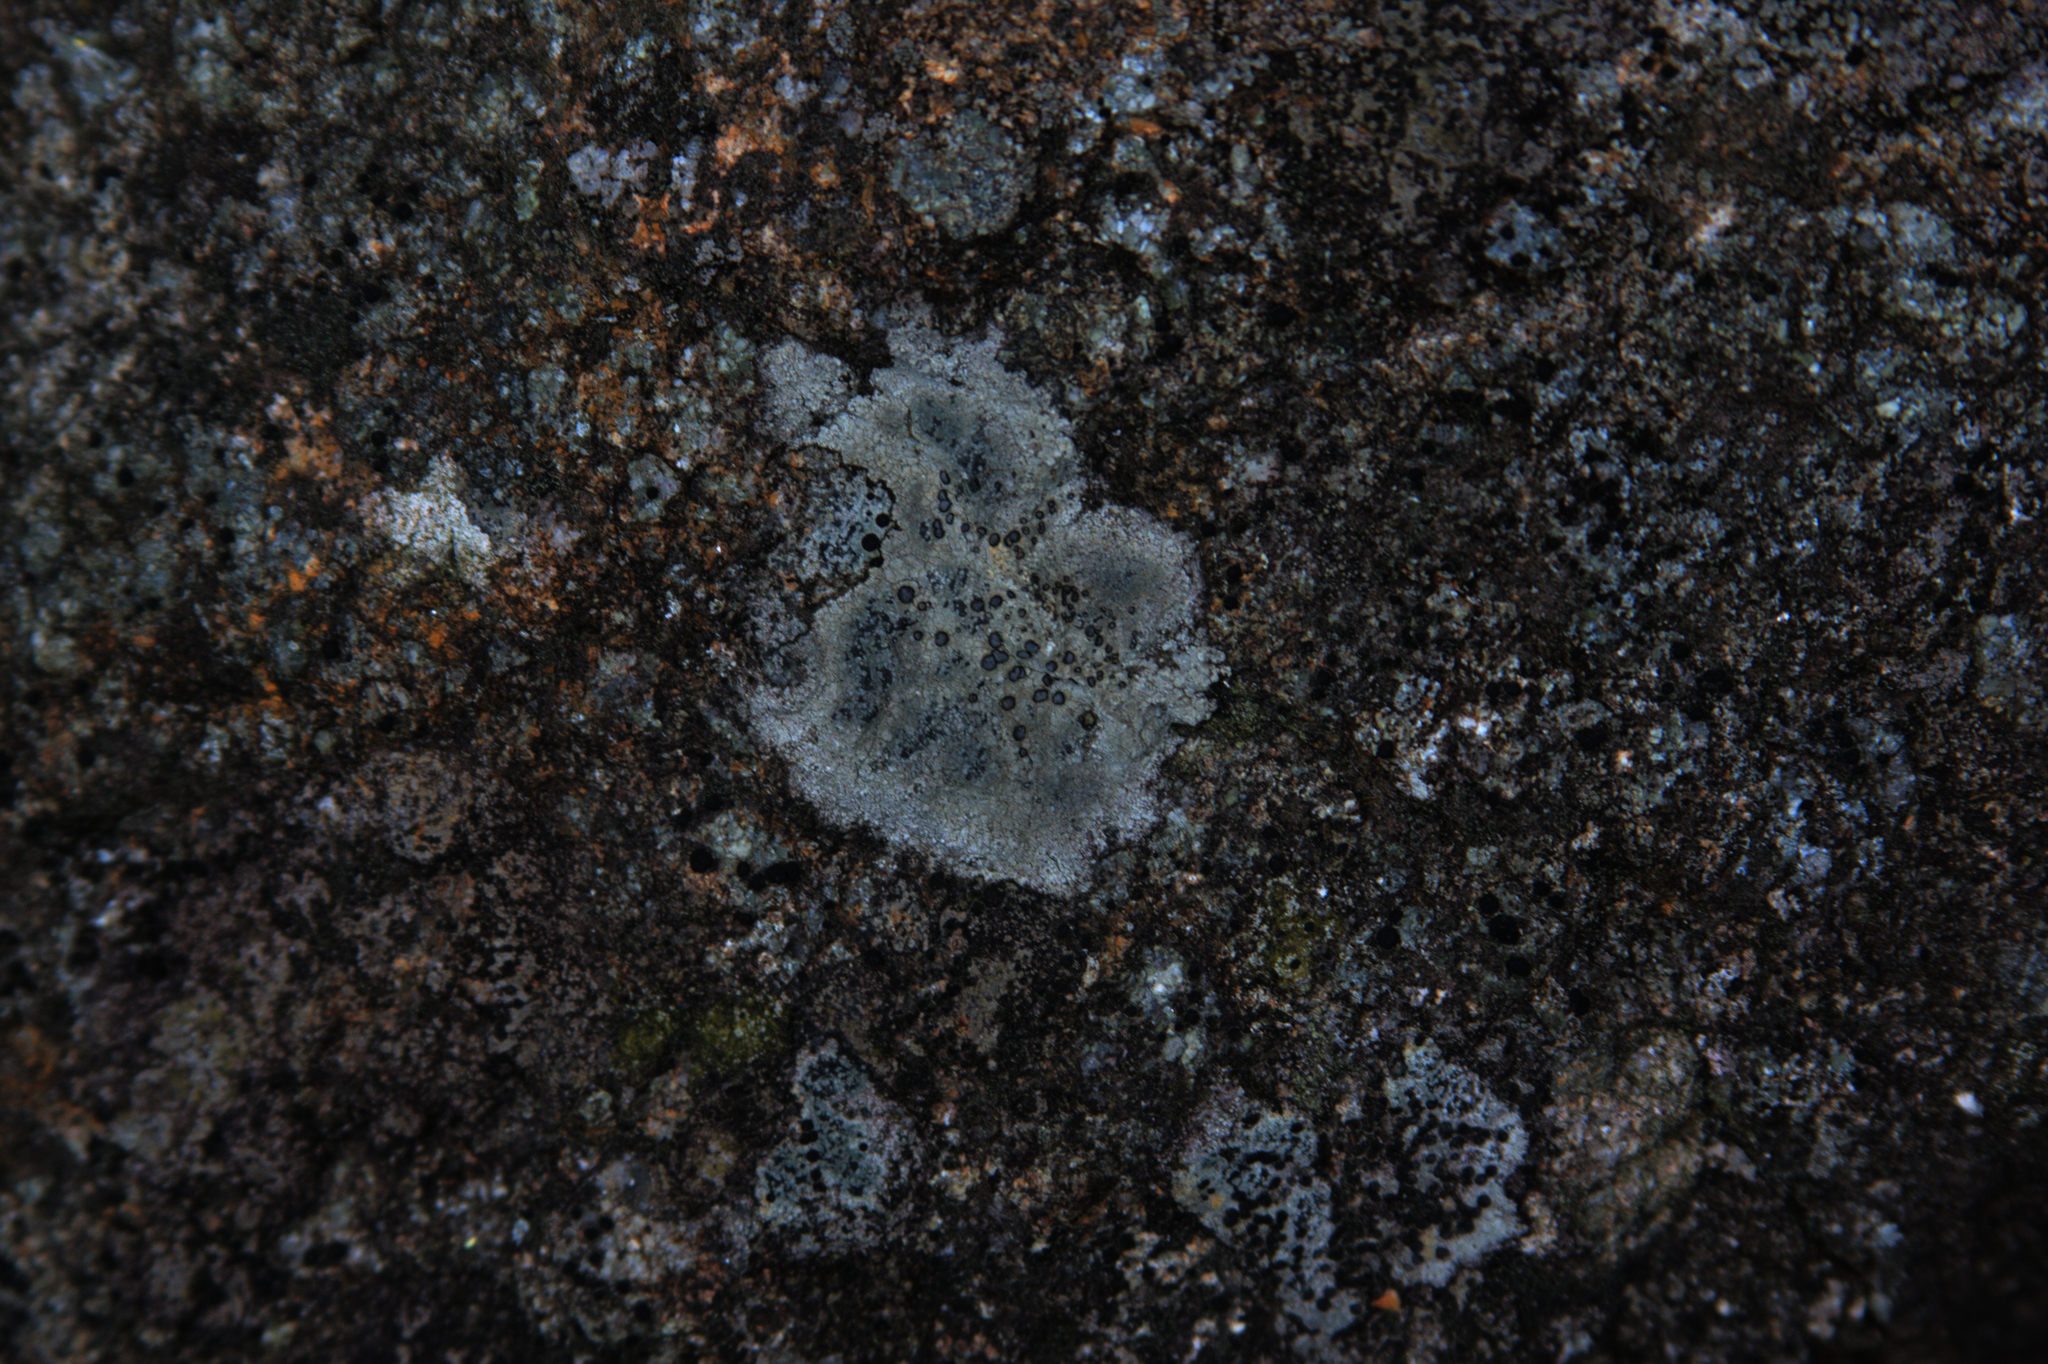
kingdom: Fungi
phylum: Ascomycota
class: Lecanoromycetes
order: Lecideales
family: Lecideaceae
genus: Porpidia
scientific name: Porpidia albocaerulescens
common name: Smokey-eyed boulder lichen
